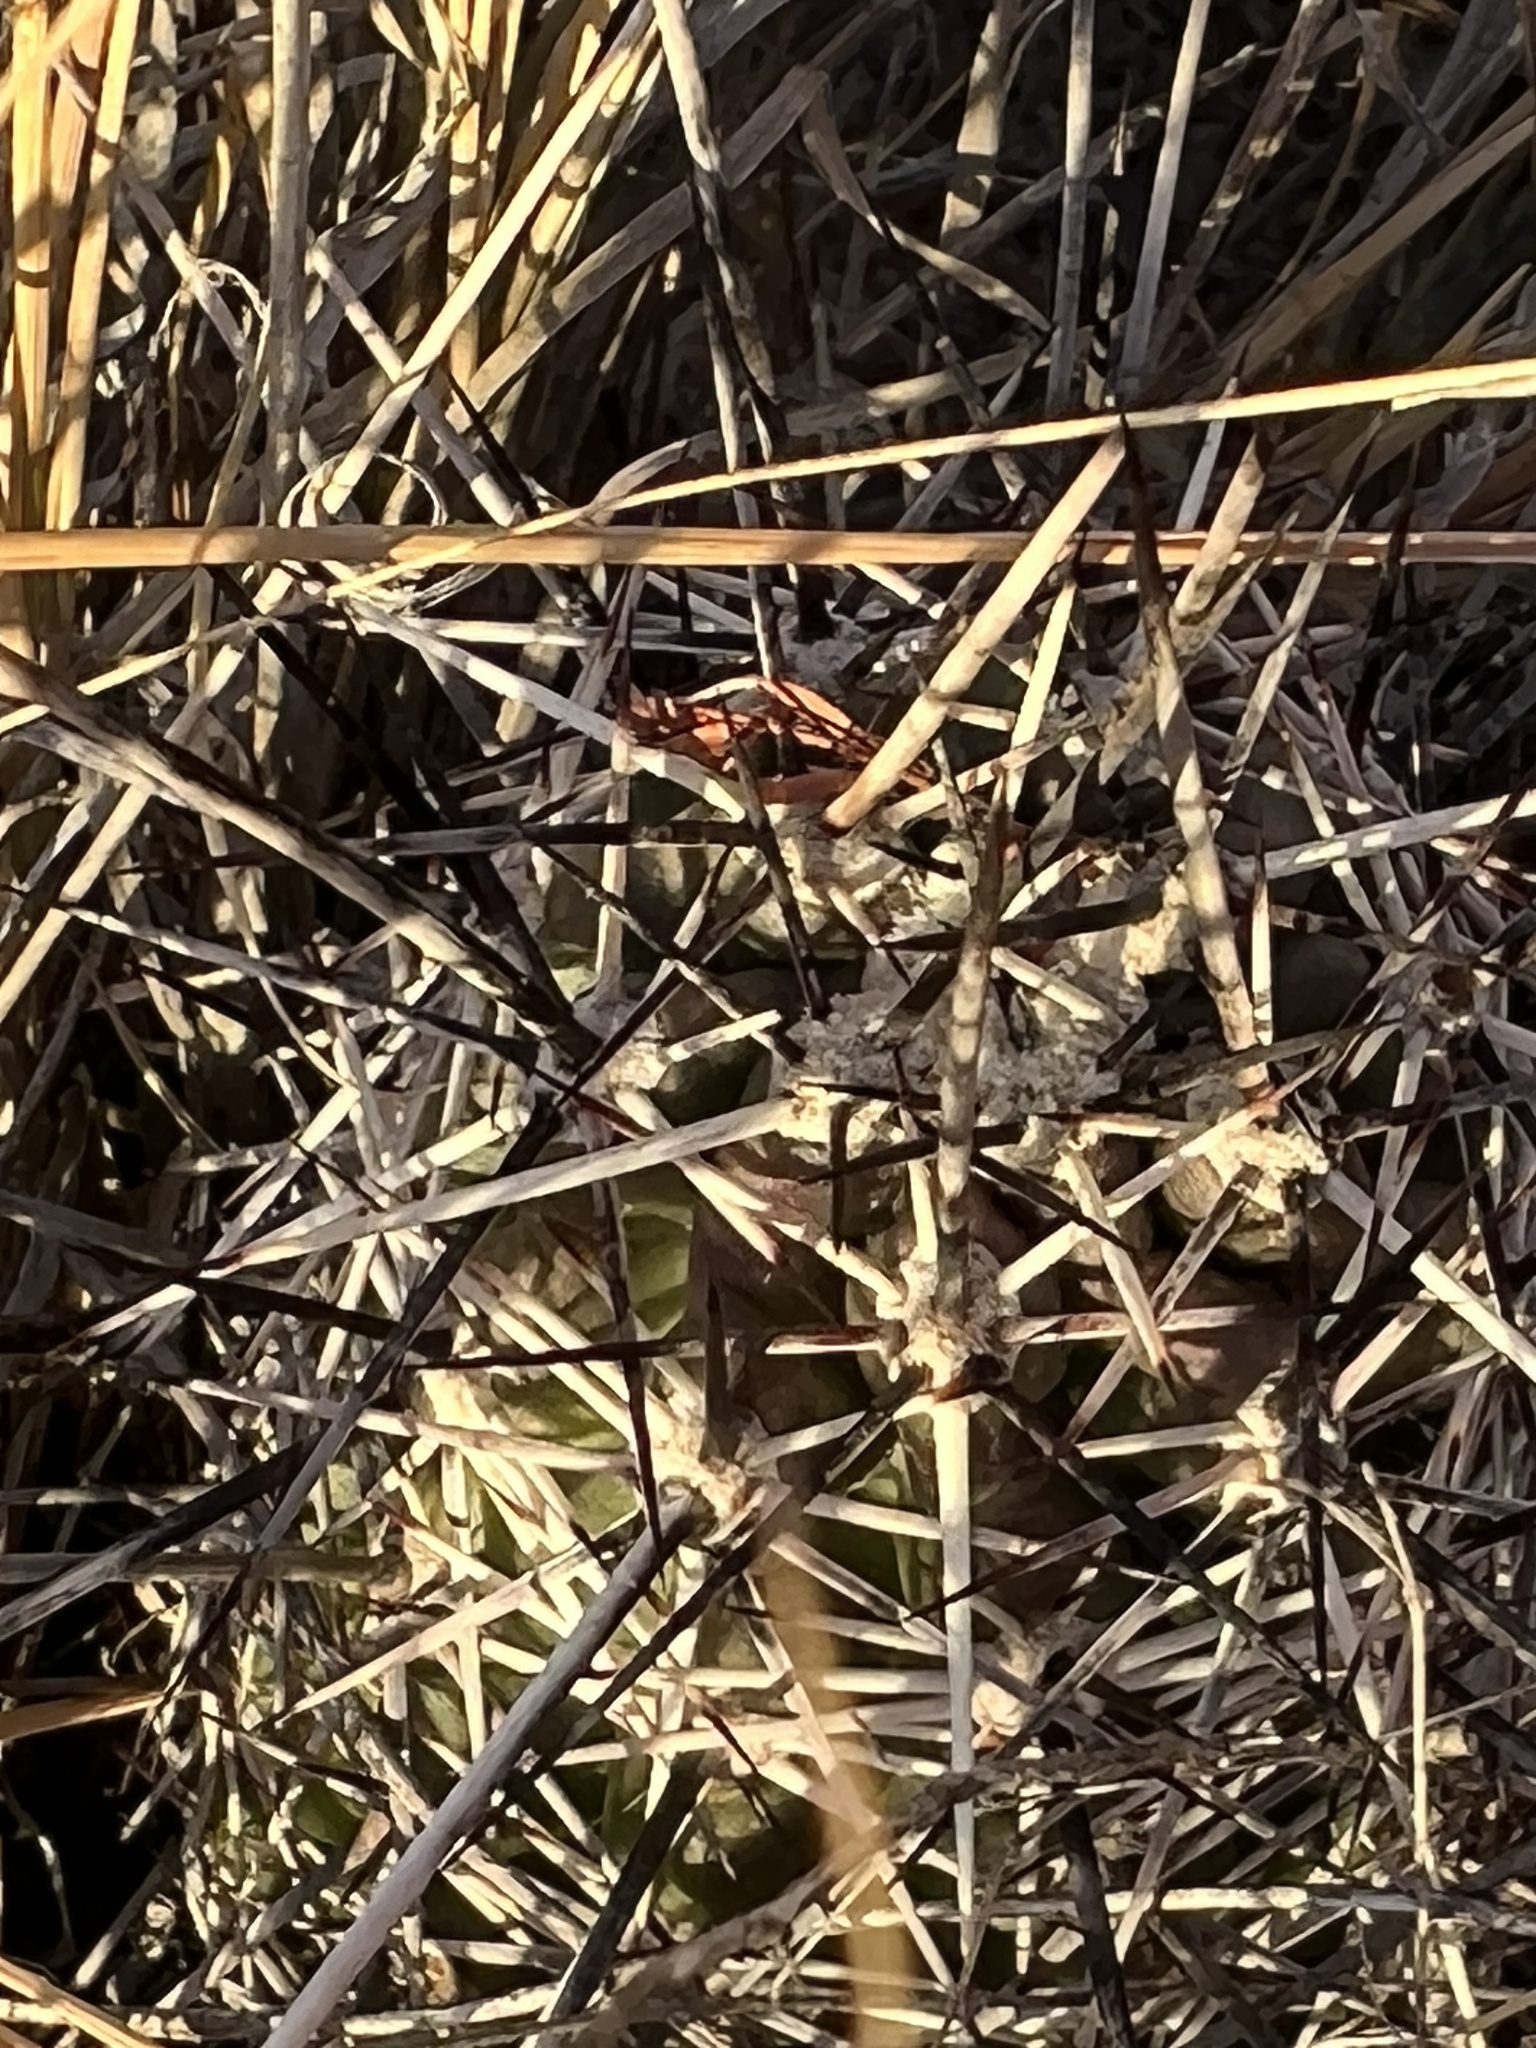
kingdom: Plantae
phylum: Tracheophyta
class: Magnoliopsida
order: Caryophyllales
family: Cactaceae
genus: Echinocereus
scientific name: Echinocereus fendleri
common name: Fendler's hedgehog cactus
